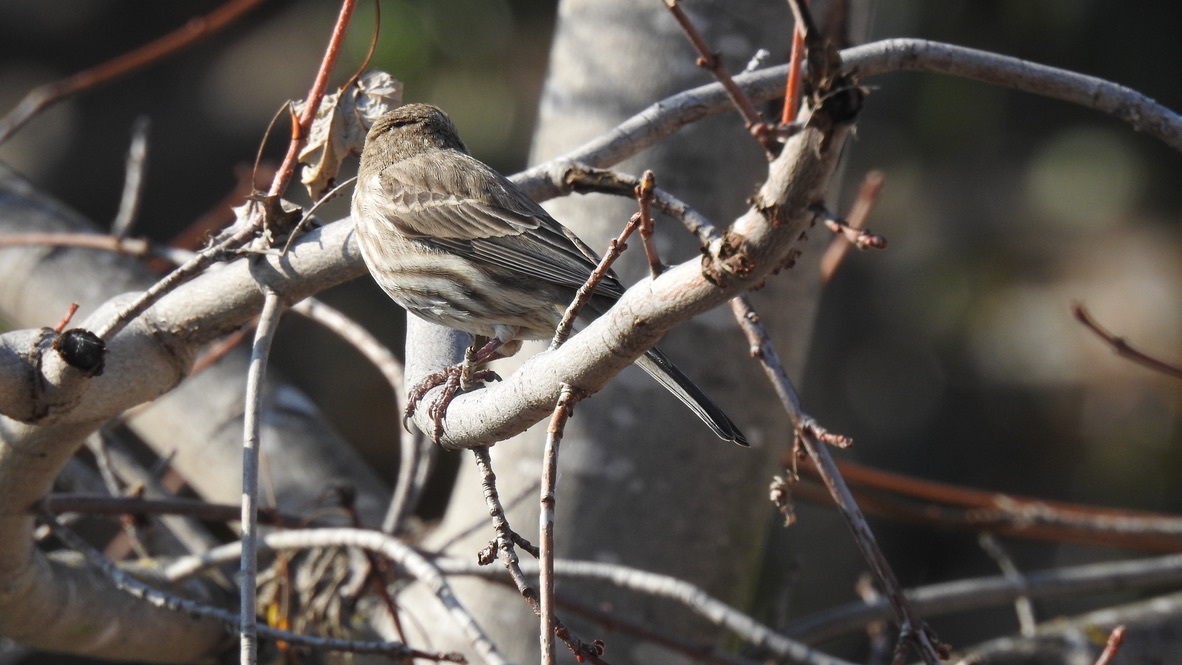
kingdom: Animalia
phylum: Chordata
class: Aves
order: Passeriformes
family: Fringillidae
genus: Haemorhous
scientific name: Haemorhous mexicanus
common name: House finch
